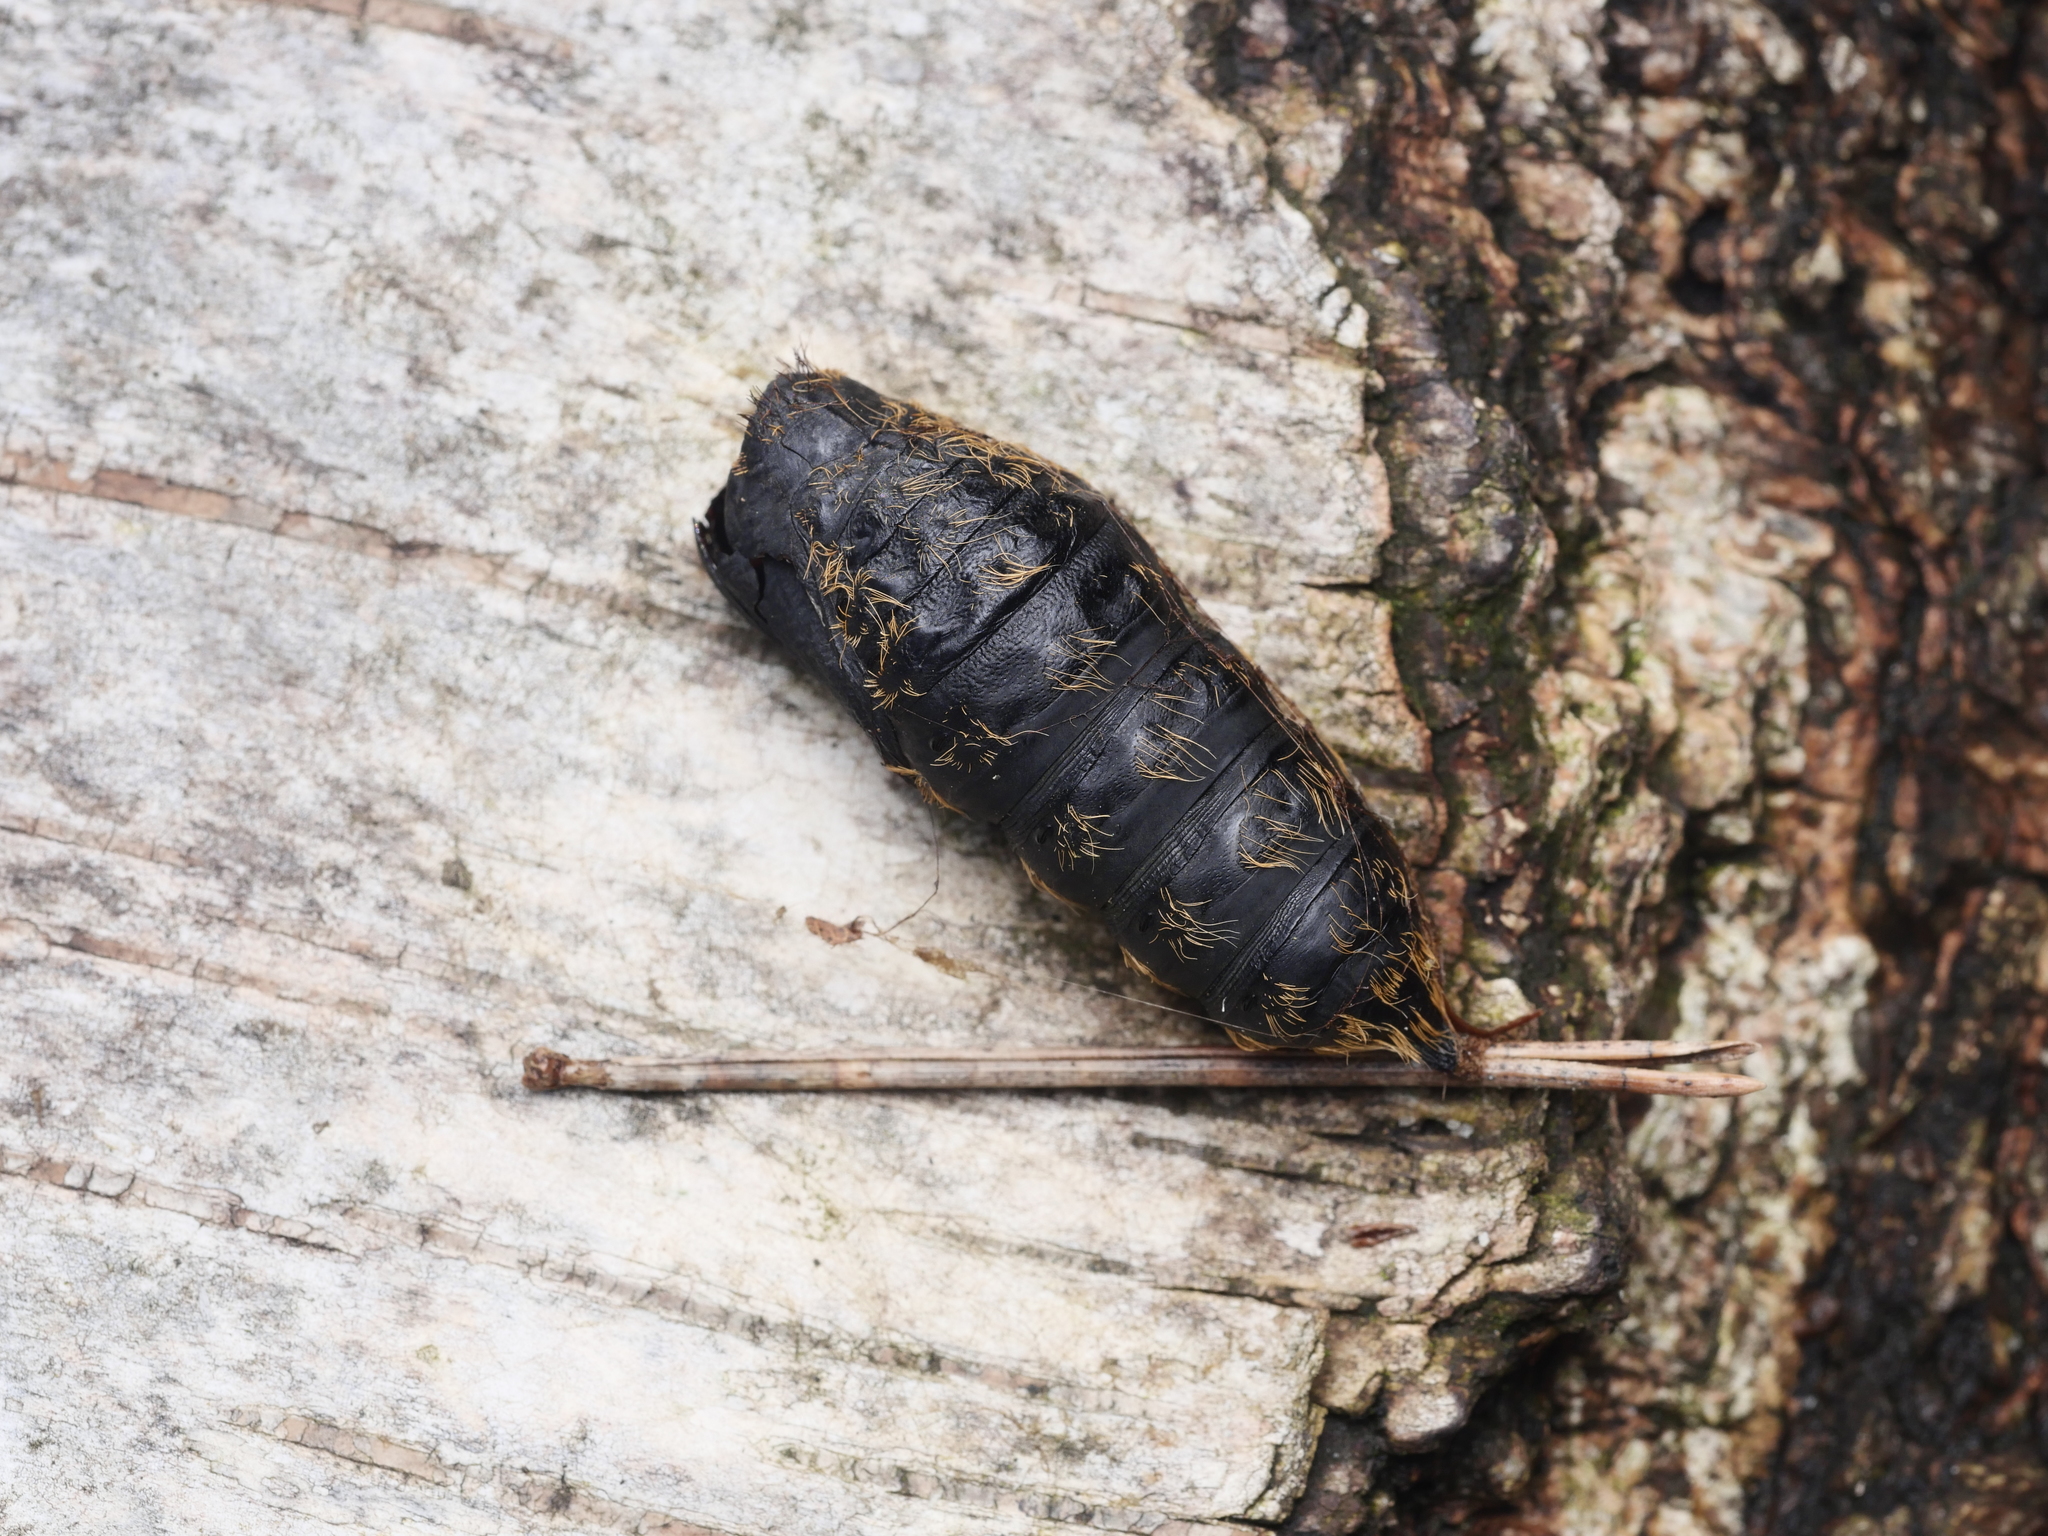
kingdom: Animalia
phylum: Arthropoda
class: Insecta
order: Lepidoptera
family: Erebidae
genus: Lymantria
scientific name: Lymantria dispar
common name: Gypsy moth
